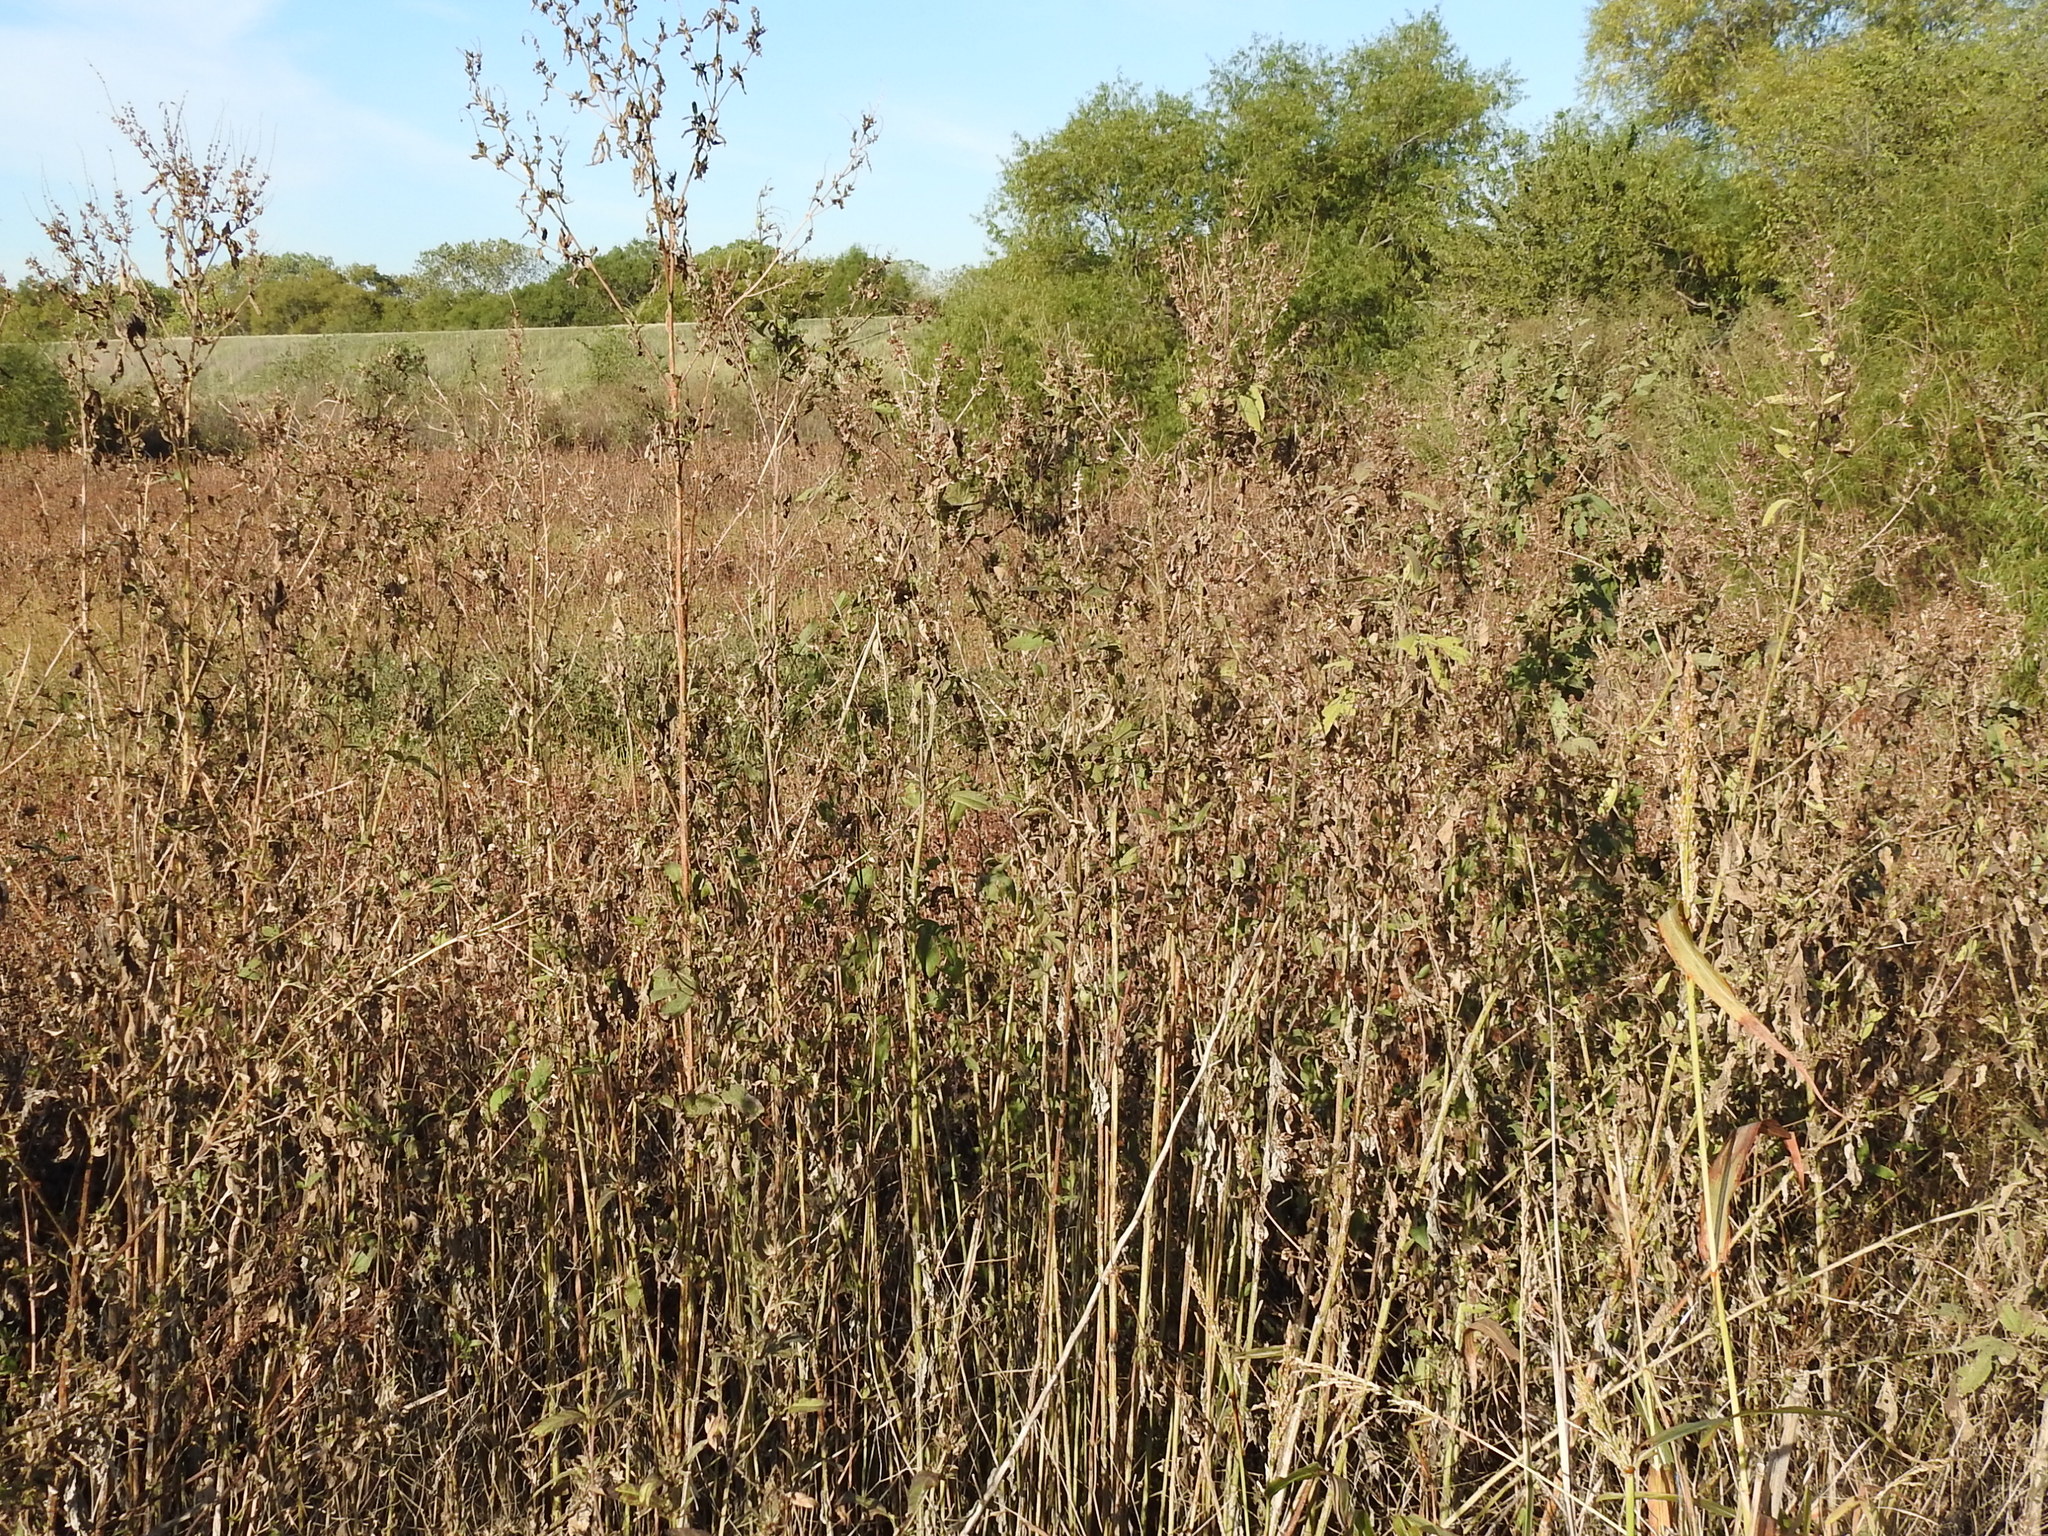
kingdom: Plantae
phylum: Tracheophyta
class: Magnoliopsida
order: Asterales
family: Asteraceae
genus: Ambrosia
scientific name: Ambrosia trifida
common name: Giant ragweed
